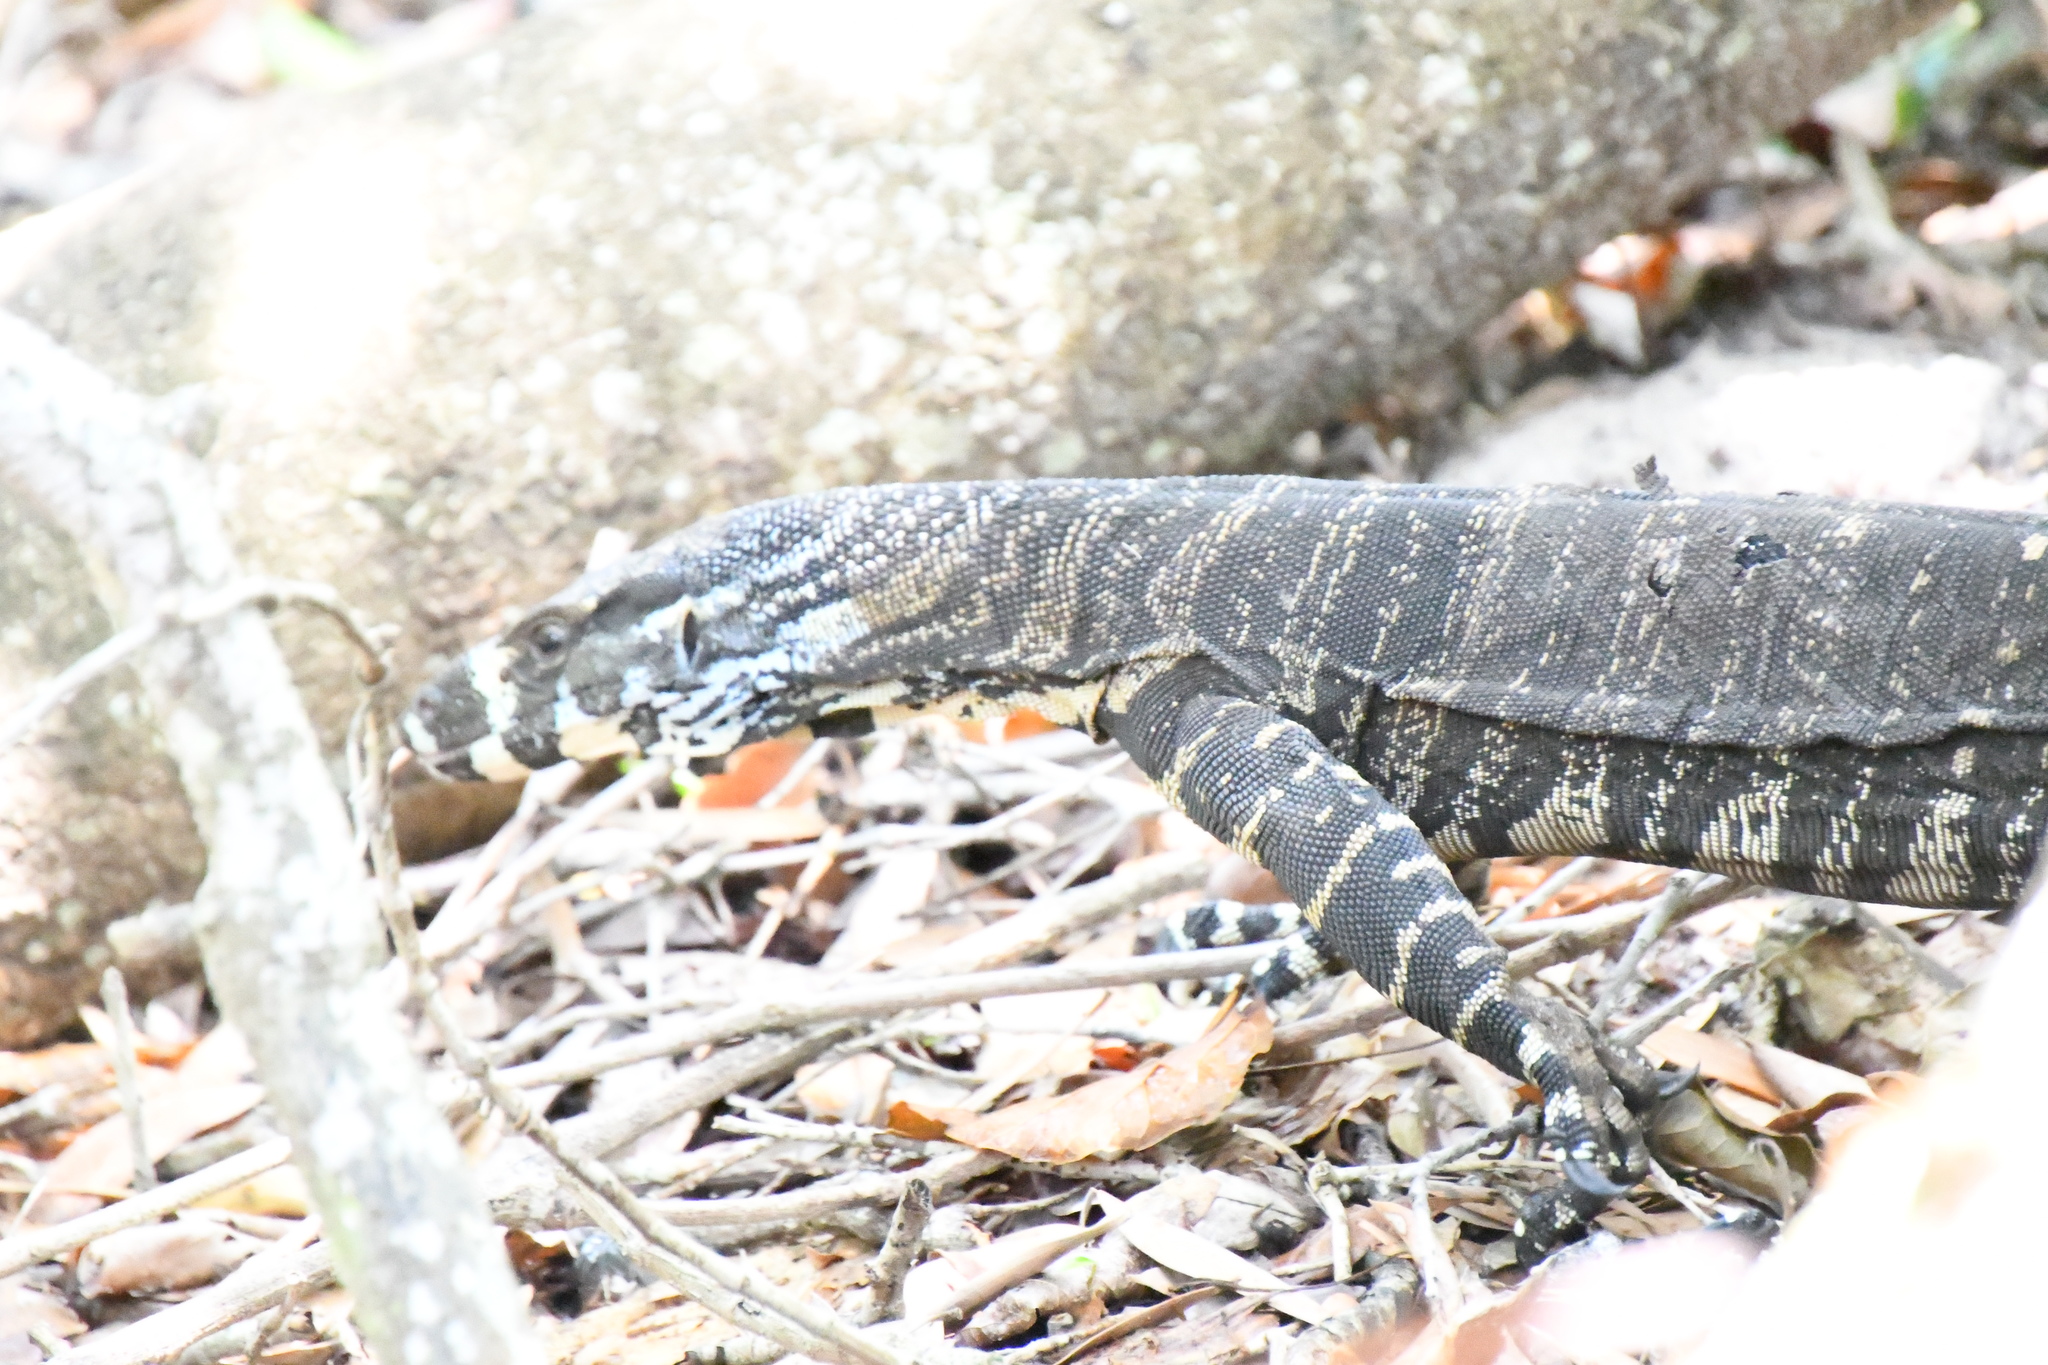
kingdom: Animalia
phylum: Chordata
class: Squamata
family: Varanidae
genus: Varanus
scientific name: Varanus varius
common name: Lace monitor
